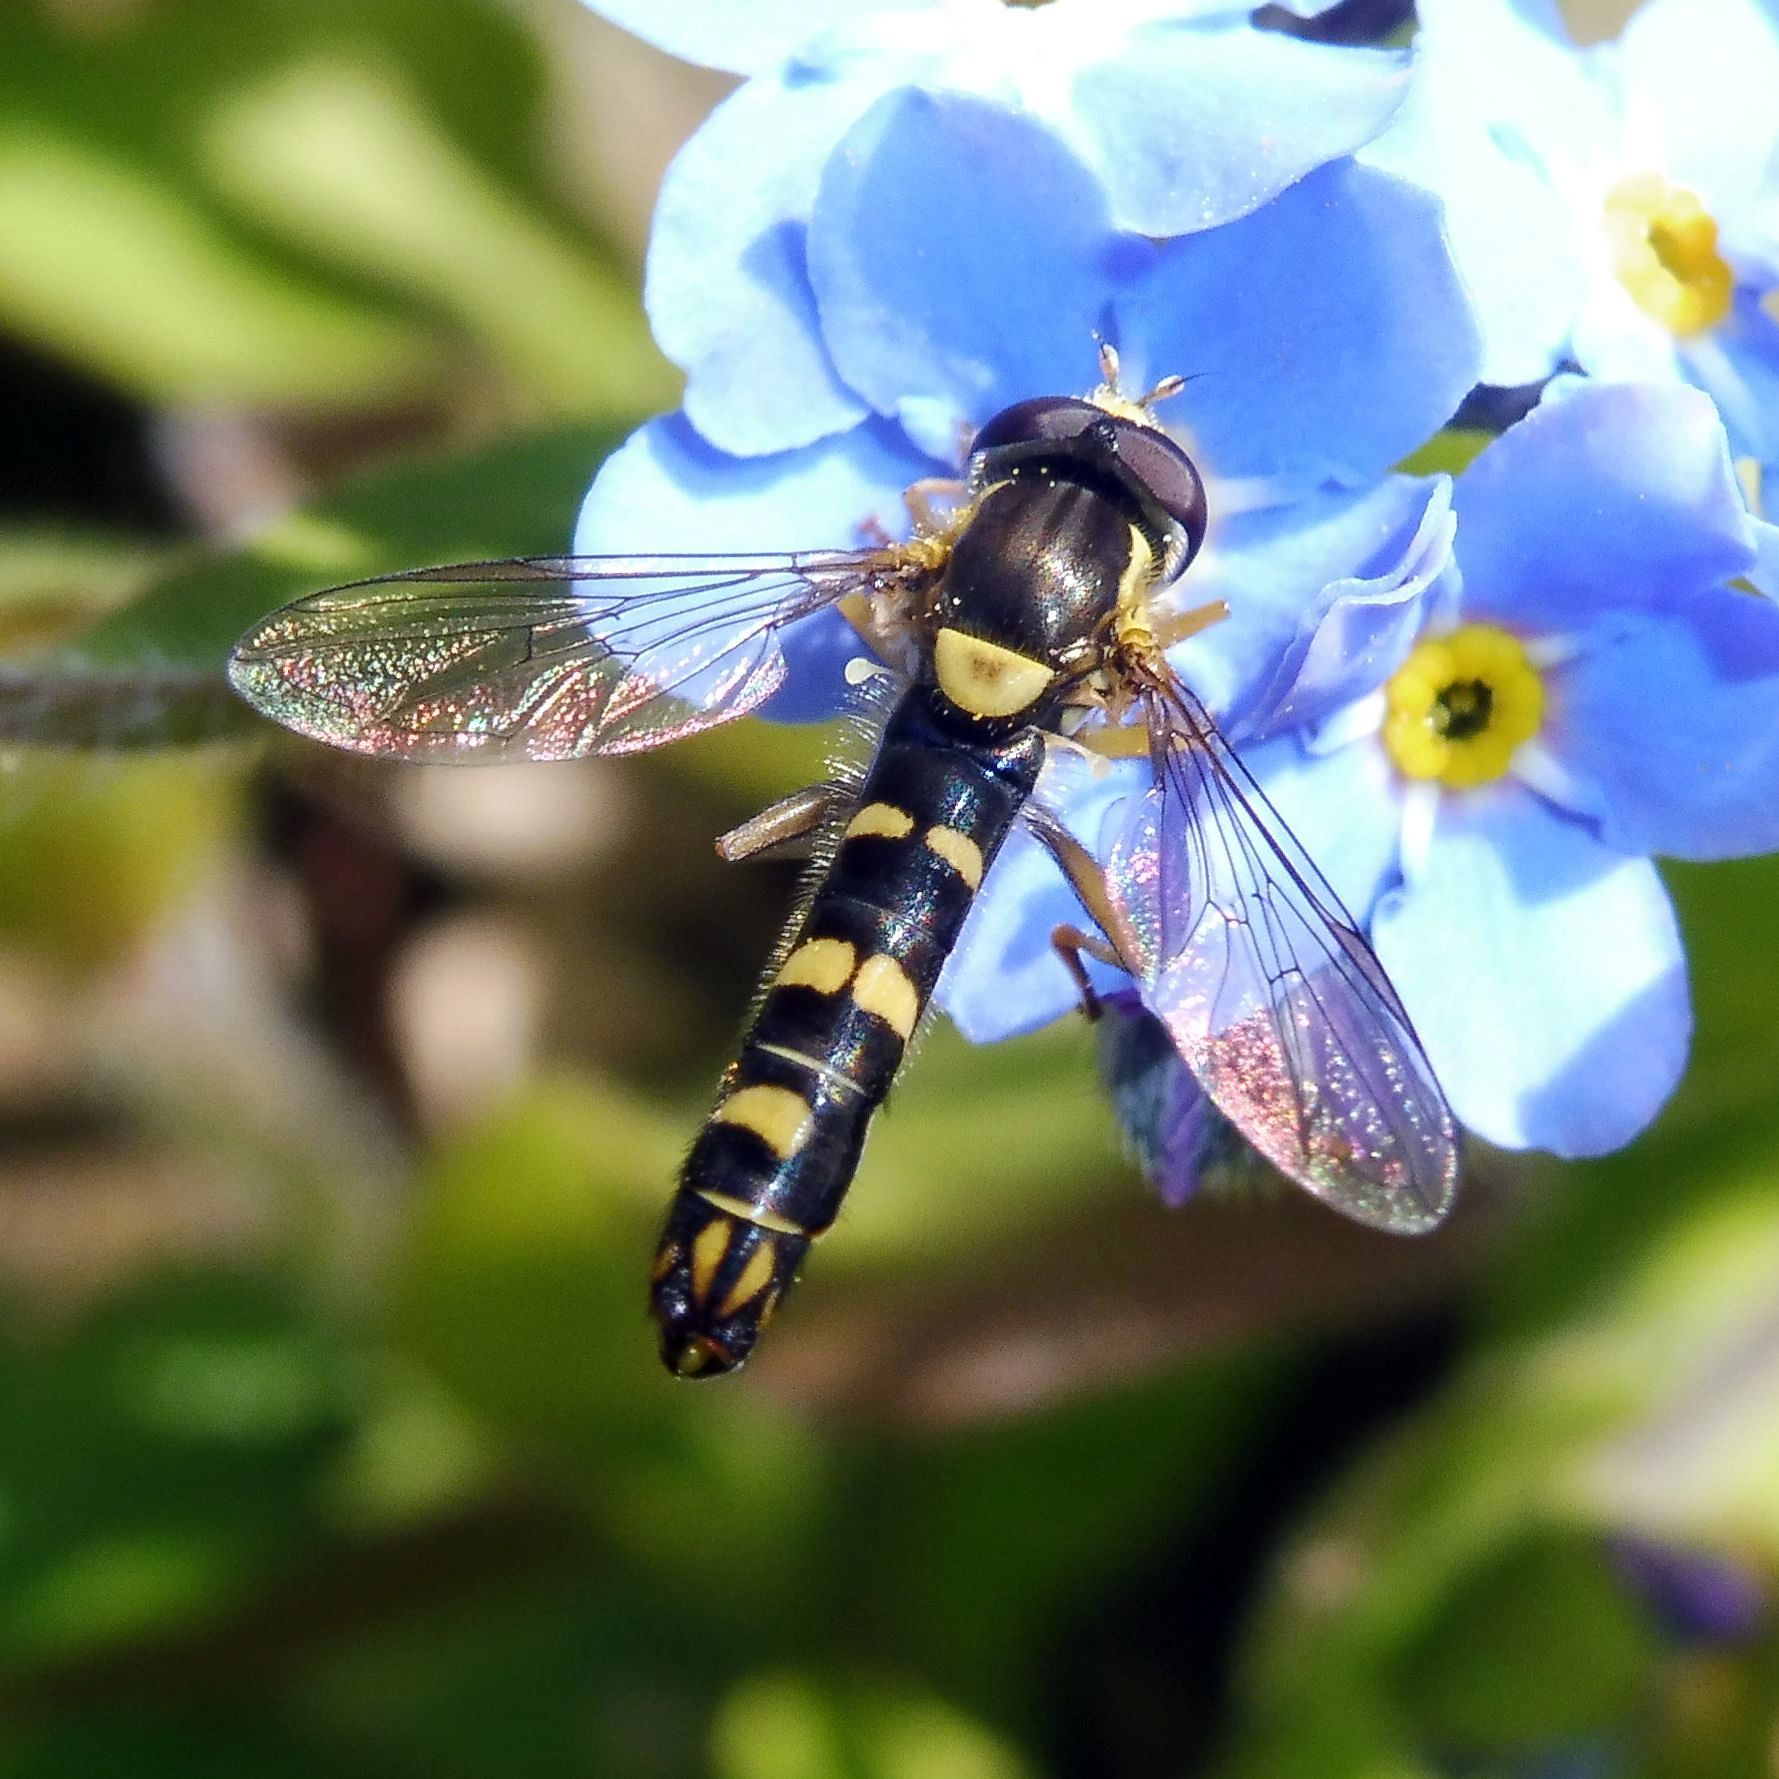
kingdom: Animalia
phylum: Arthropoda
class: Insecta
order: Diptera
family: Syrphidae
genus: Sphaerophoria
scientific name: Sphaerophoria scripta
